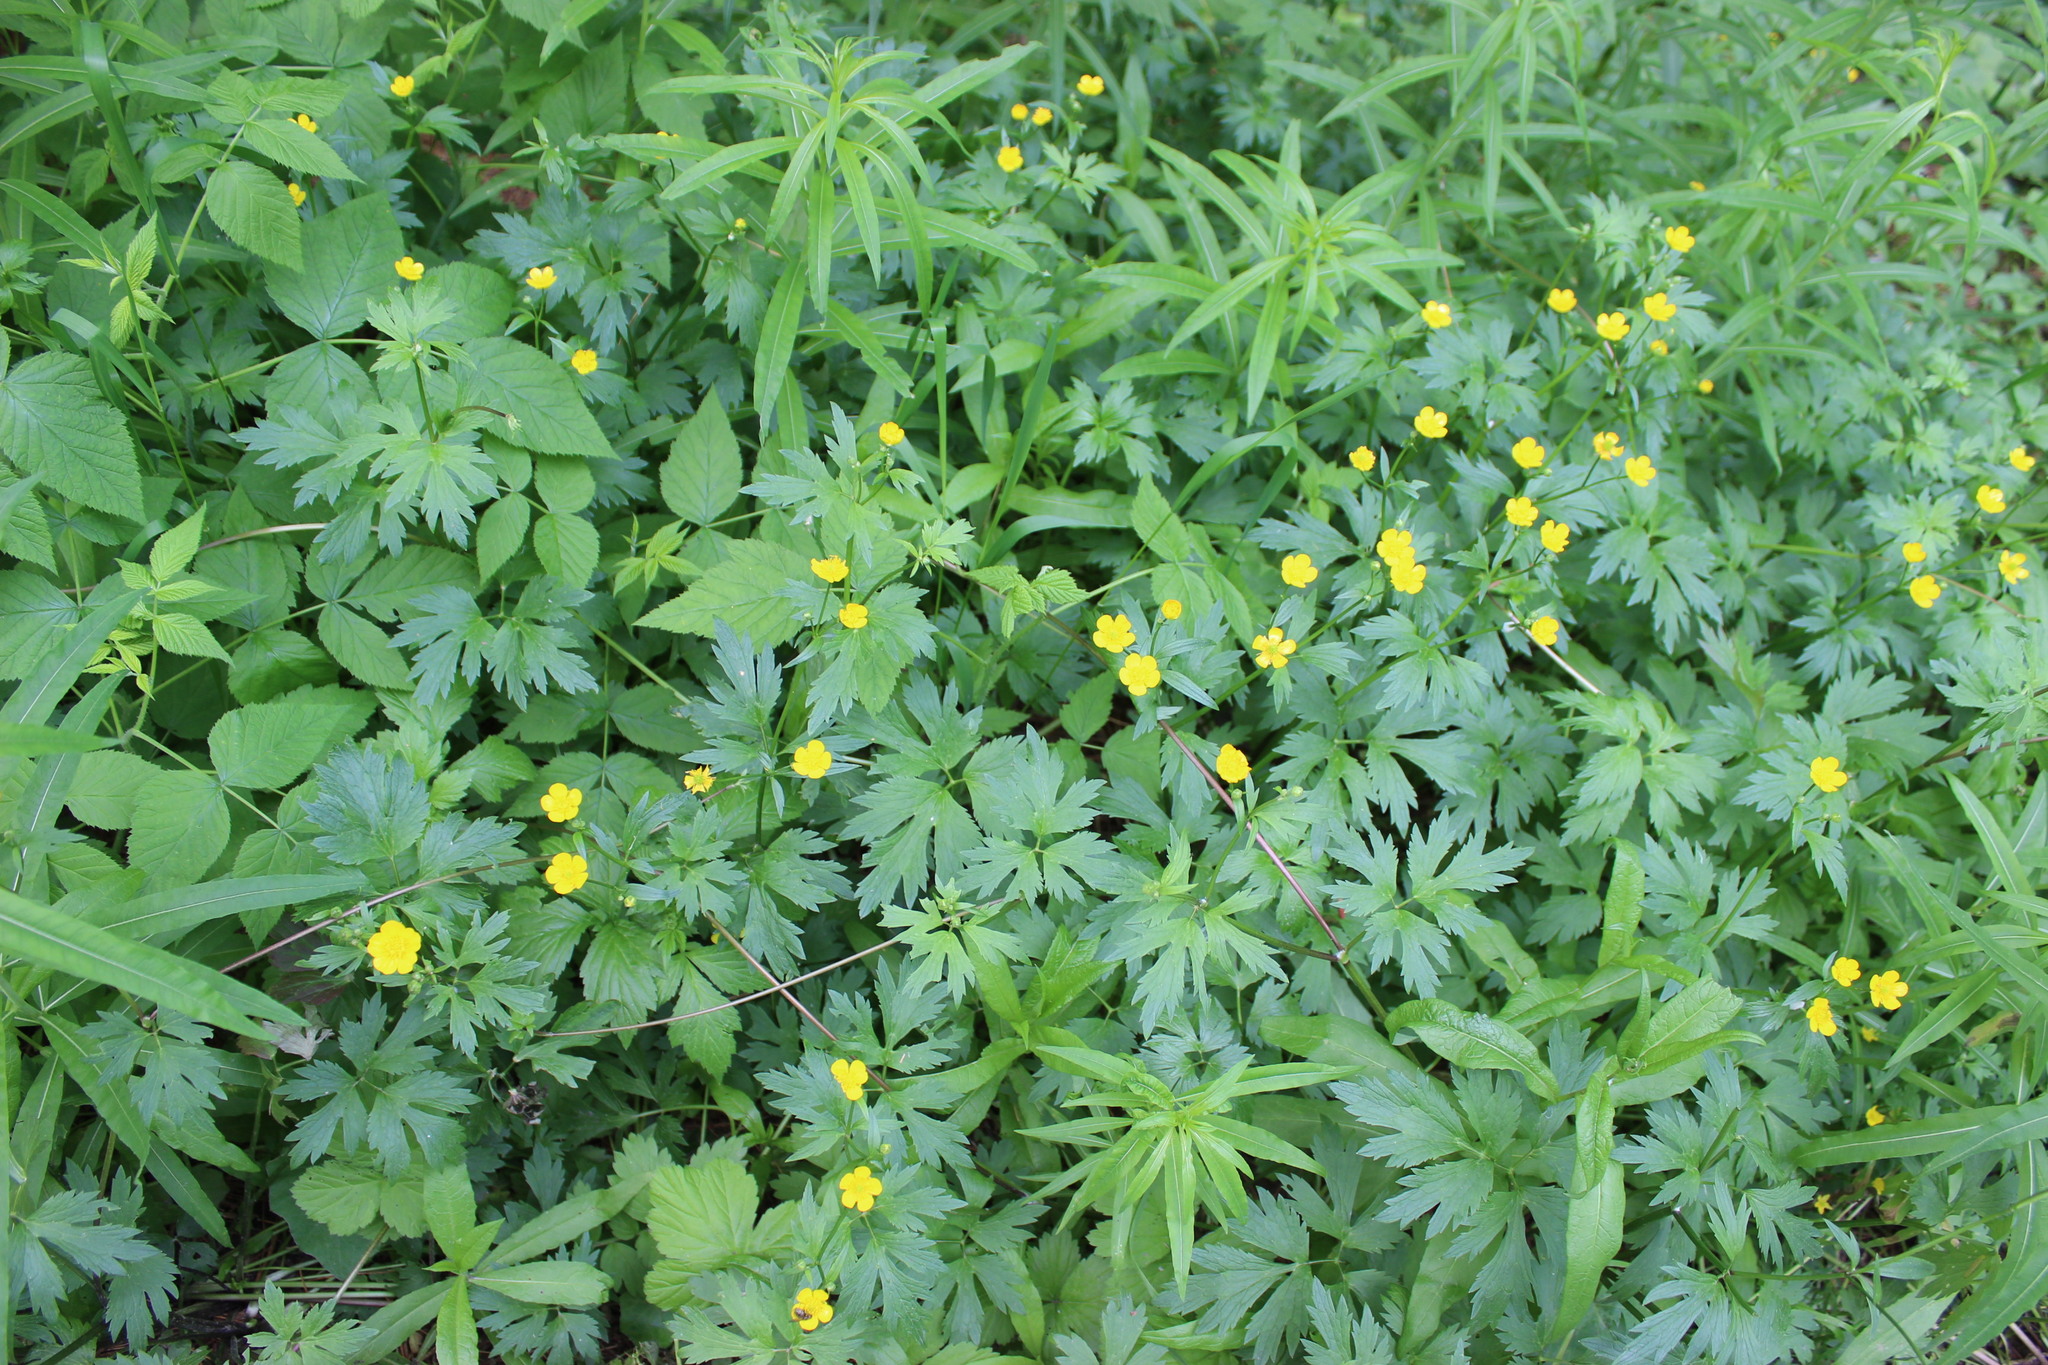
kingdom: Plantae
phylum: Tracheophyta
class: Magnoliopsida
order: Ranunculales
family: Ranunculaceae
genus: Ranunculus
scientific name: Ranunculus repens
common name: Creeping buttercup
